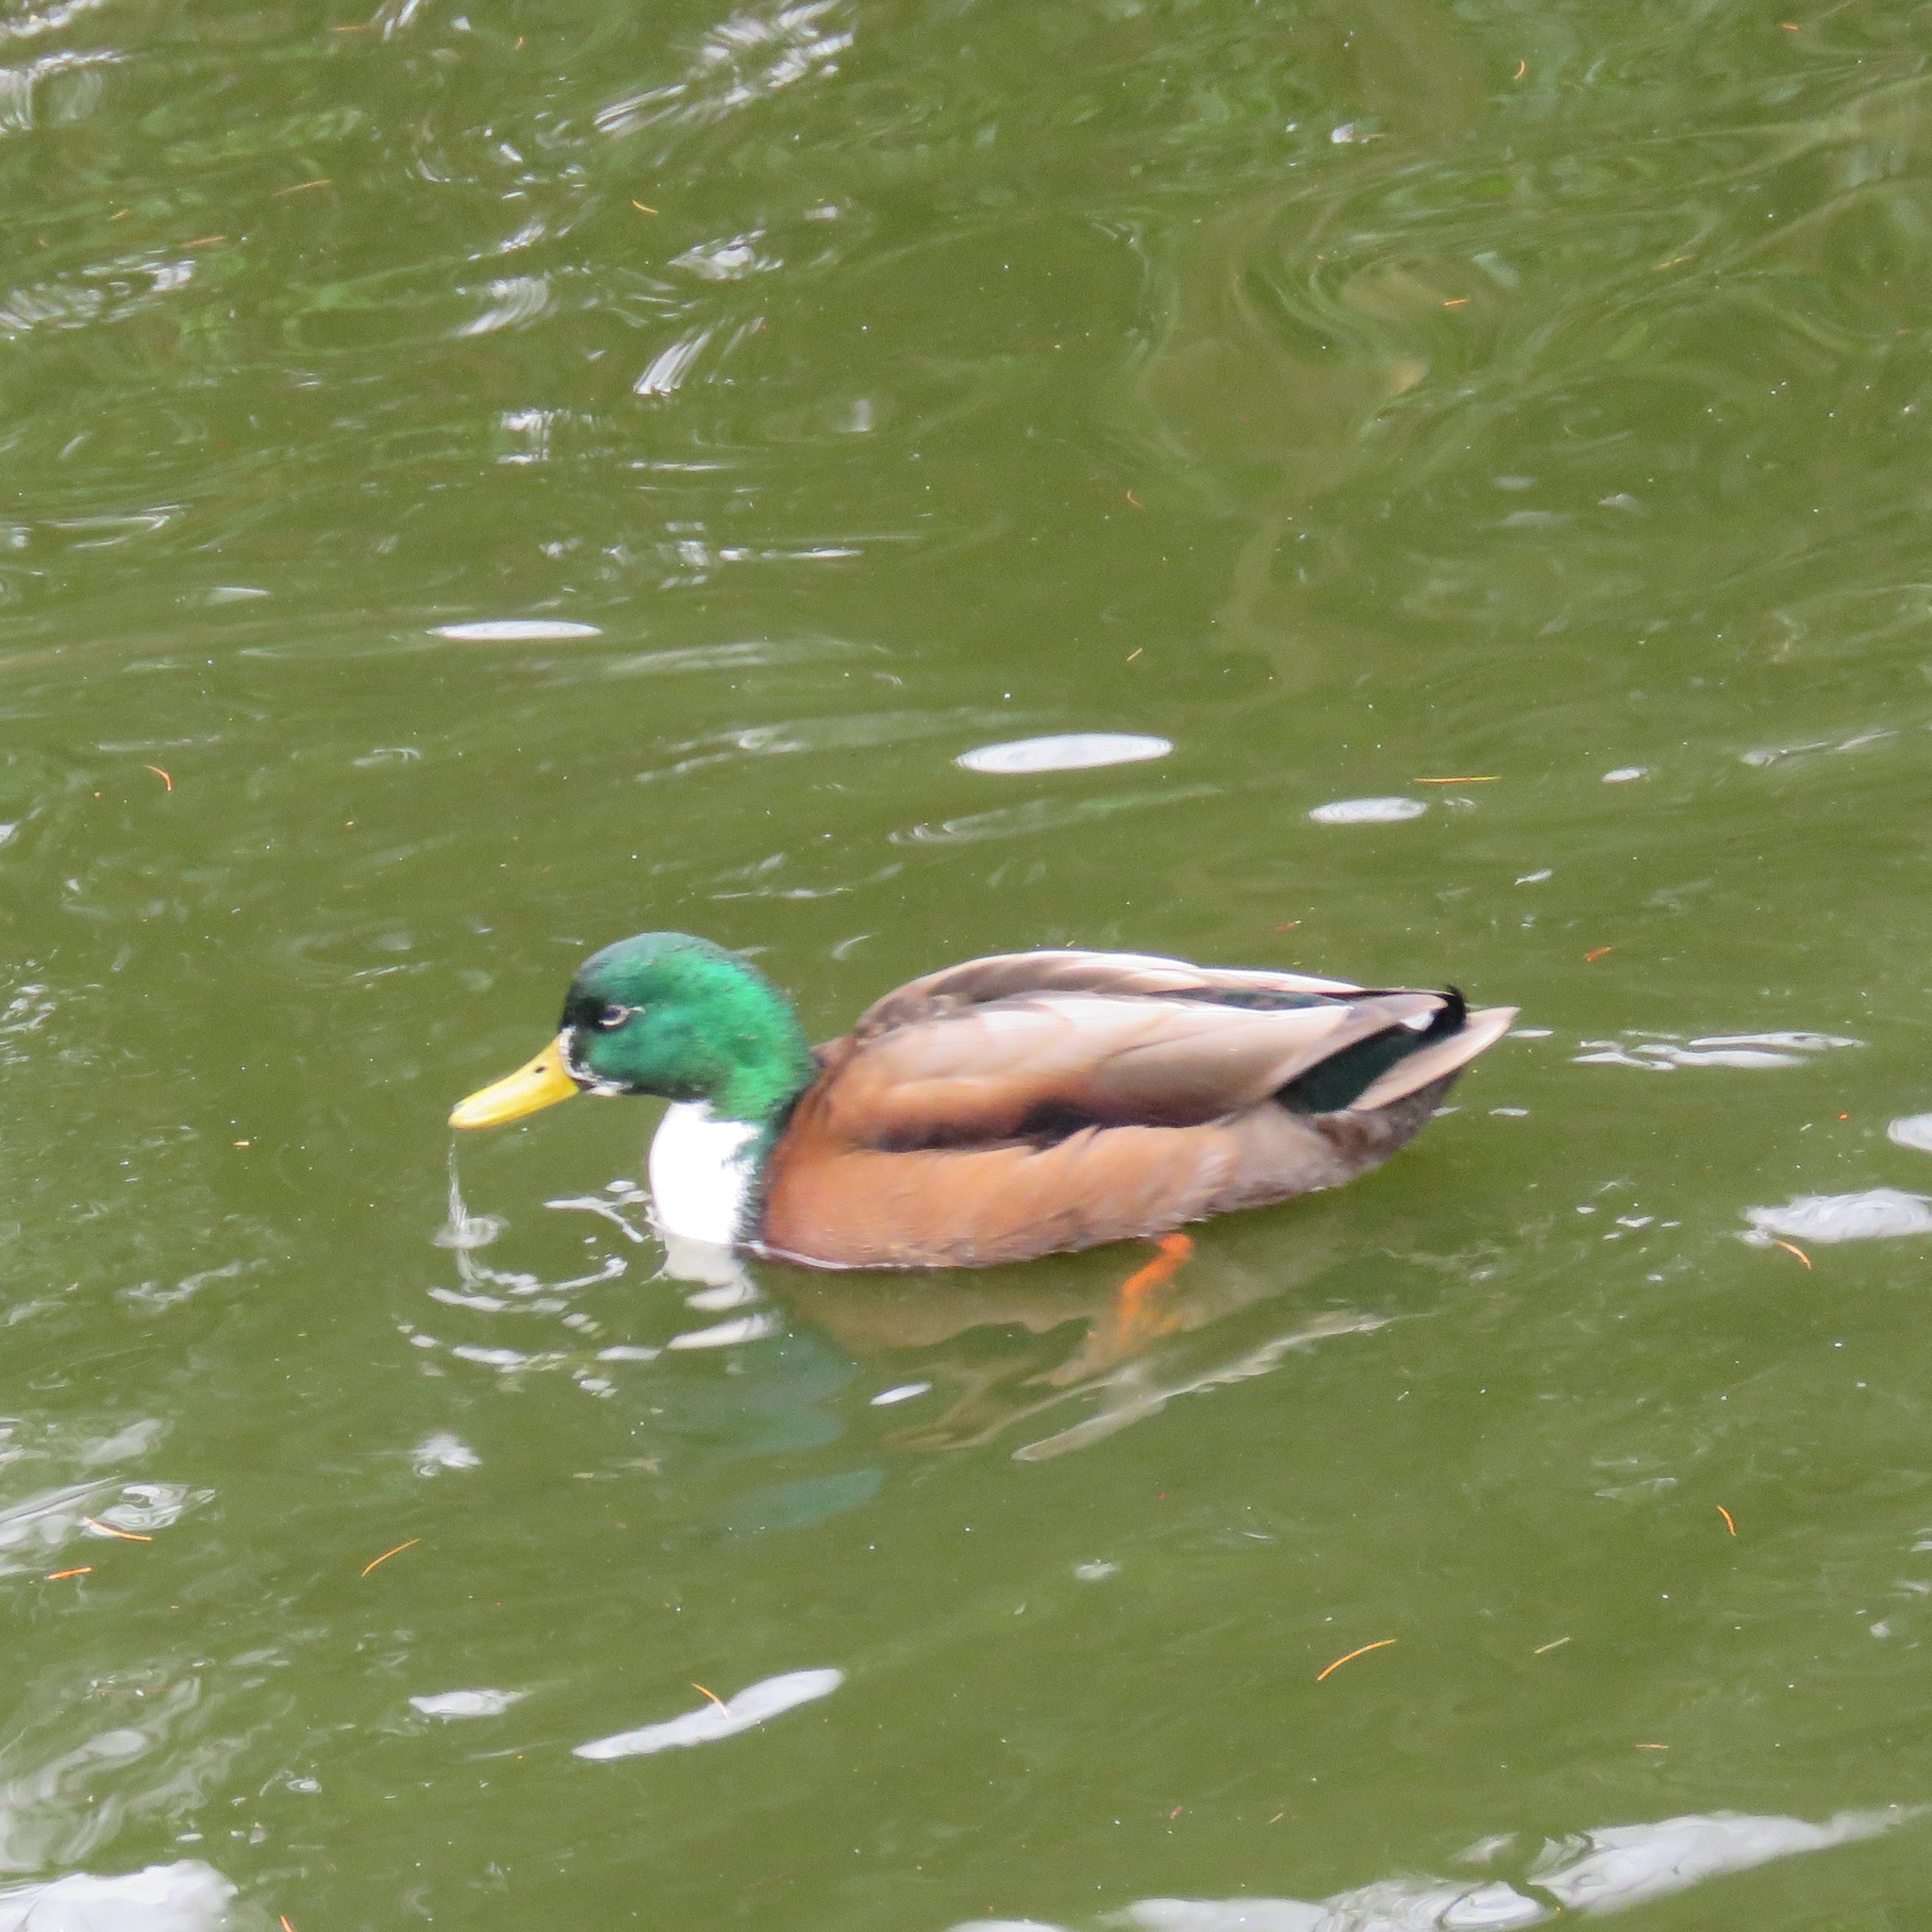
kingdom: Animalia
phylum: Chordata
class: Aves
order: Anseriformes
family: Anatidae
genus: Anas
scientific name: Anas platyrhynchos
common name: Mallard
